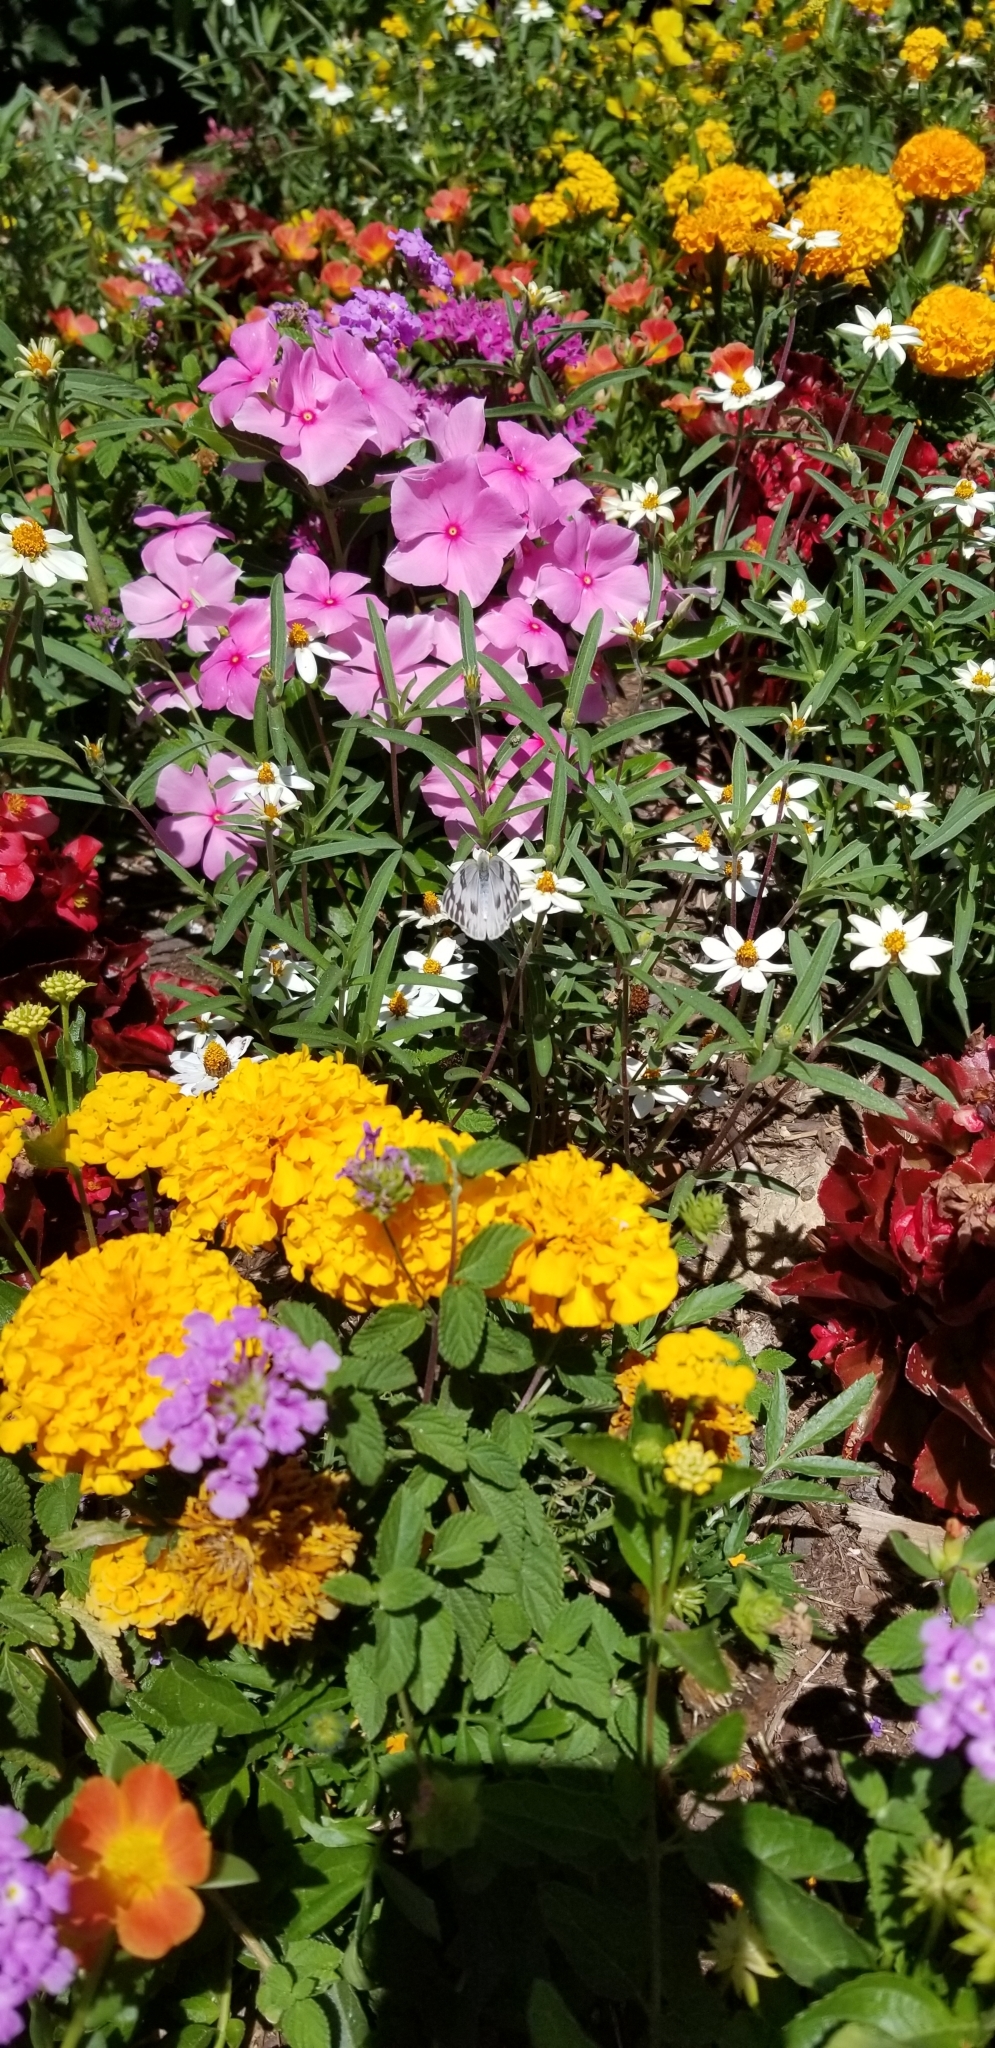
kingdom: Animalia
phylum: Arthropoda
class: Insecta
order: Lepidoptera
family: Pieridae
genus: Pontia
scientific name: Pontia protodice
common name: Checkered white
